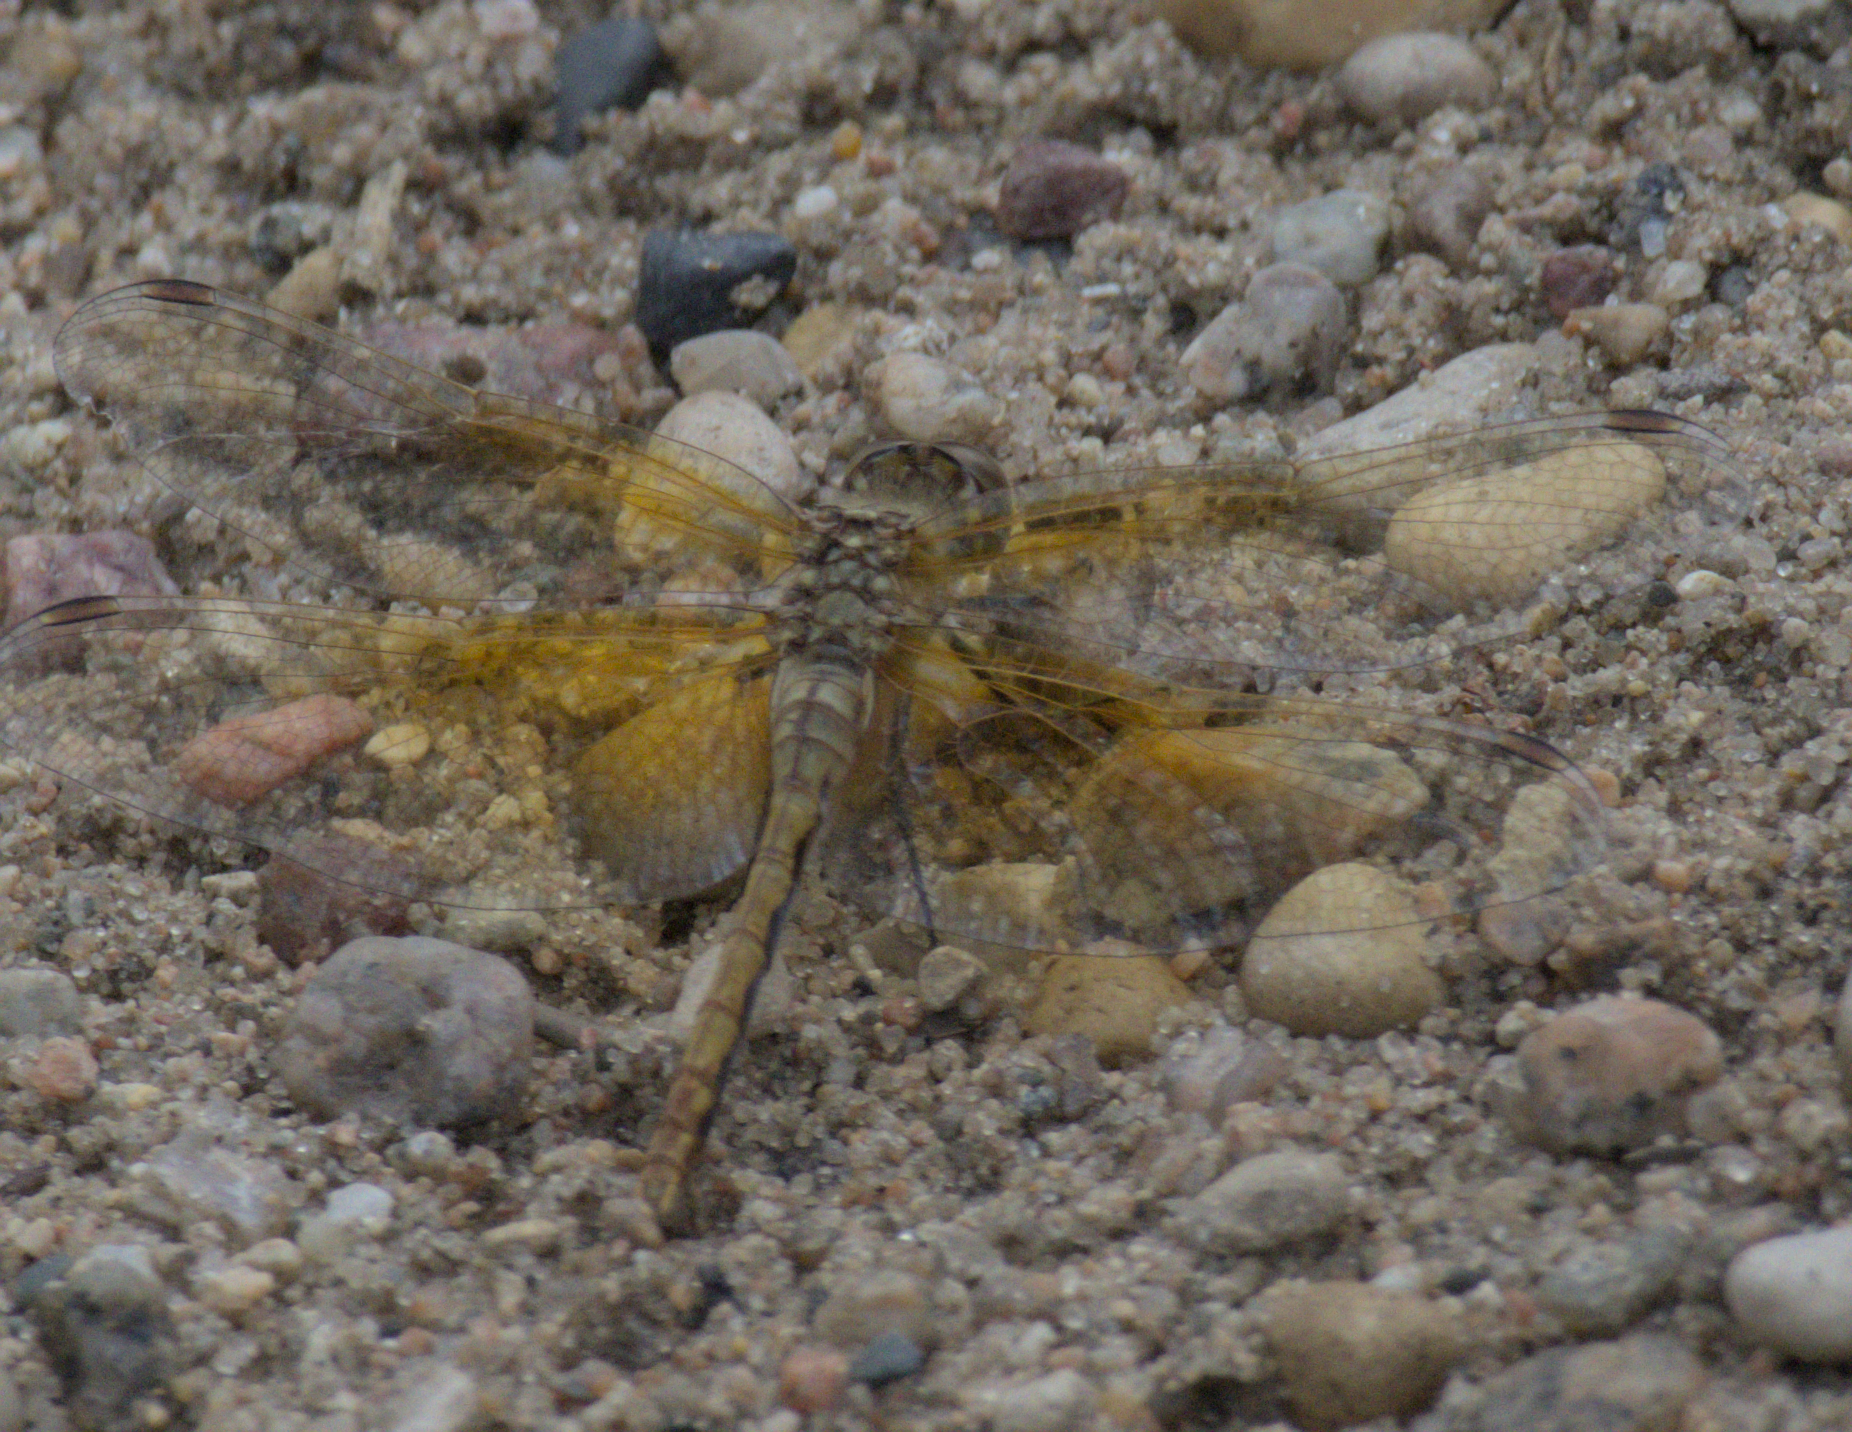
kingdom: Animalia
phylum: Arthropoda
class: Insecta
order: Odonata
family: Libellulidae
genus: Sympetrum
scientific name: Sympetrum semicinctum
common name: Band-winged meadowhawk
